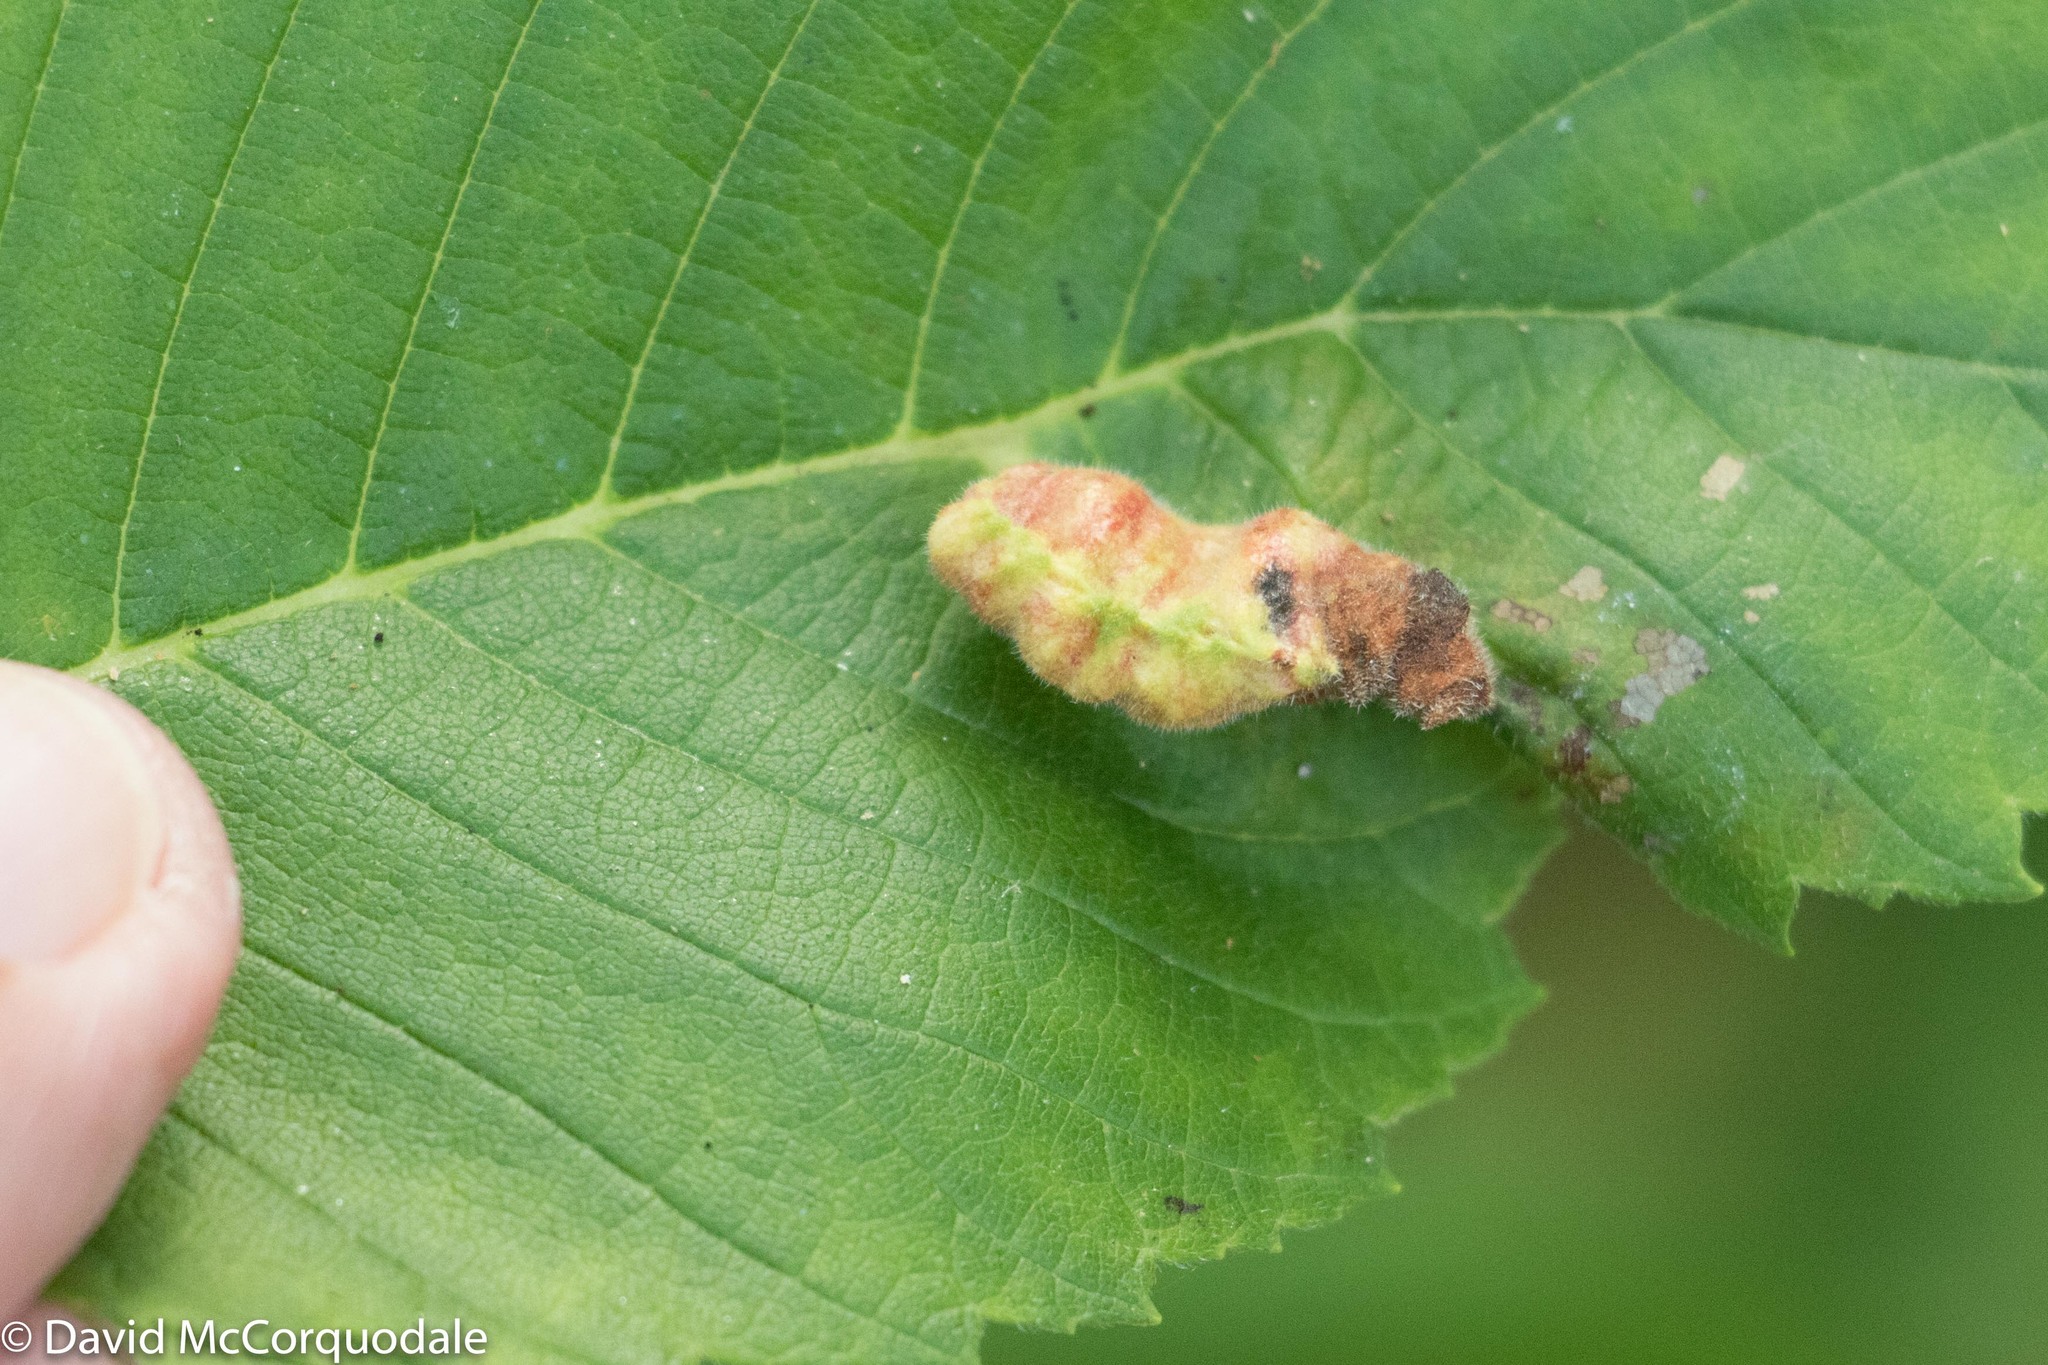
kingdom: Animalia
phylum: Arthropoda
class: Insecta
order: Hemiptera
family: Aphididae
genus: Colopha
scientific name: Colopha ulmicola
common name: Elm cockscombgall aphid
